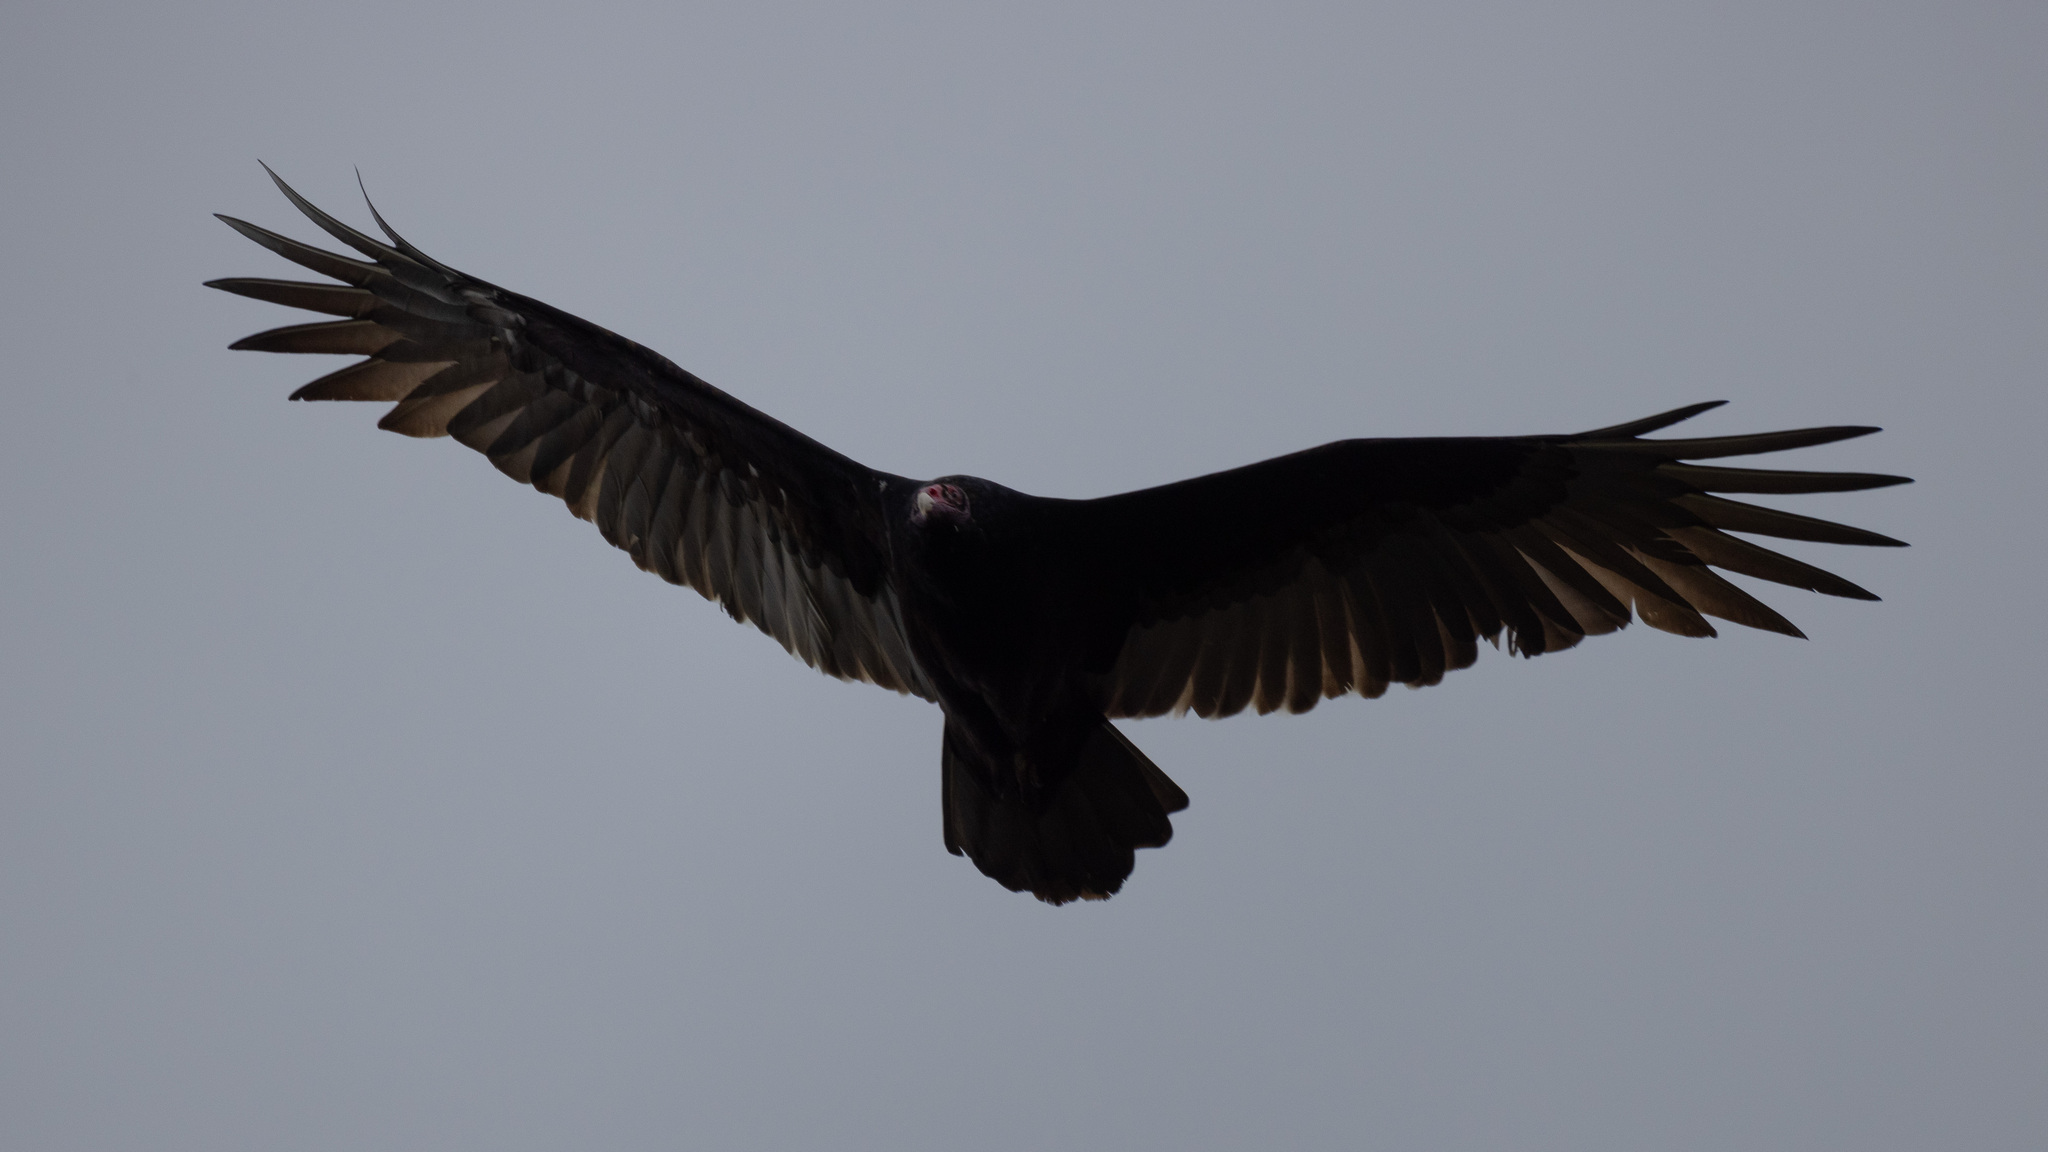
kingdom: Animalia
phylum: Chordata
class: Aves
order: Accipitriformes
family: Cathartidae
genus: Cathartes
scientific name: Cathartes aura
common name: Turkey vulture
